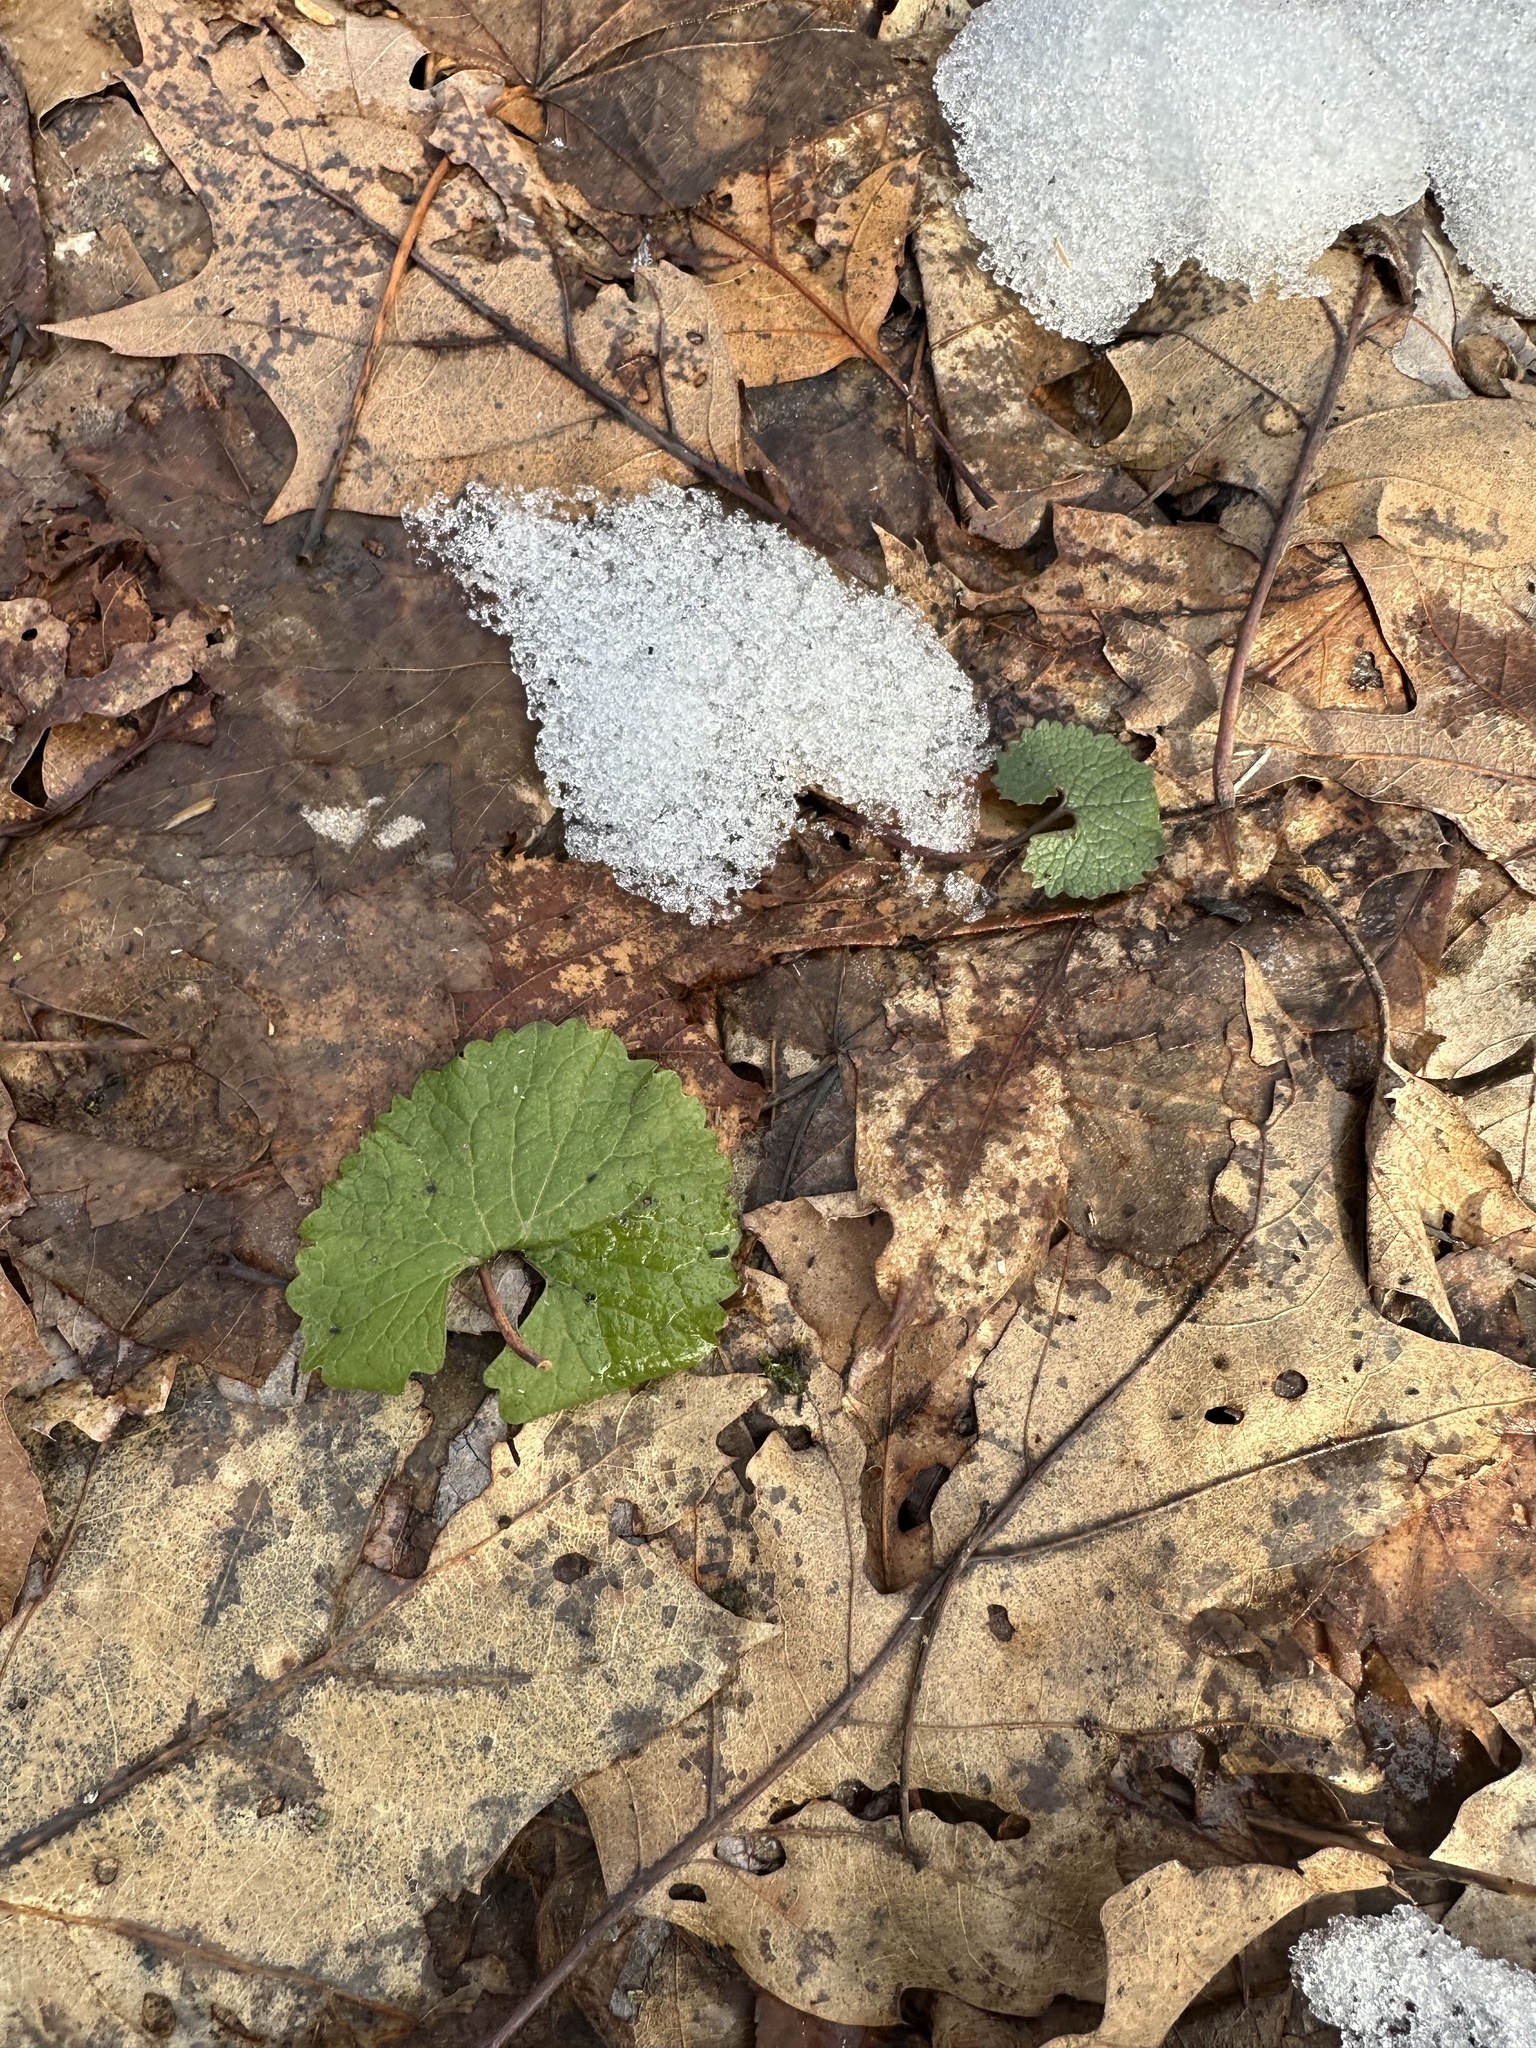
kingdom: Plantae
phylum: Tracheophyta
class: Magnoliopsida
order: Brassicales
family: Brassicaceae
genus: Alliaria
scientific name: Alliaria petiolata
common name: Garlic mustard
